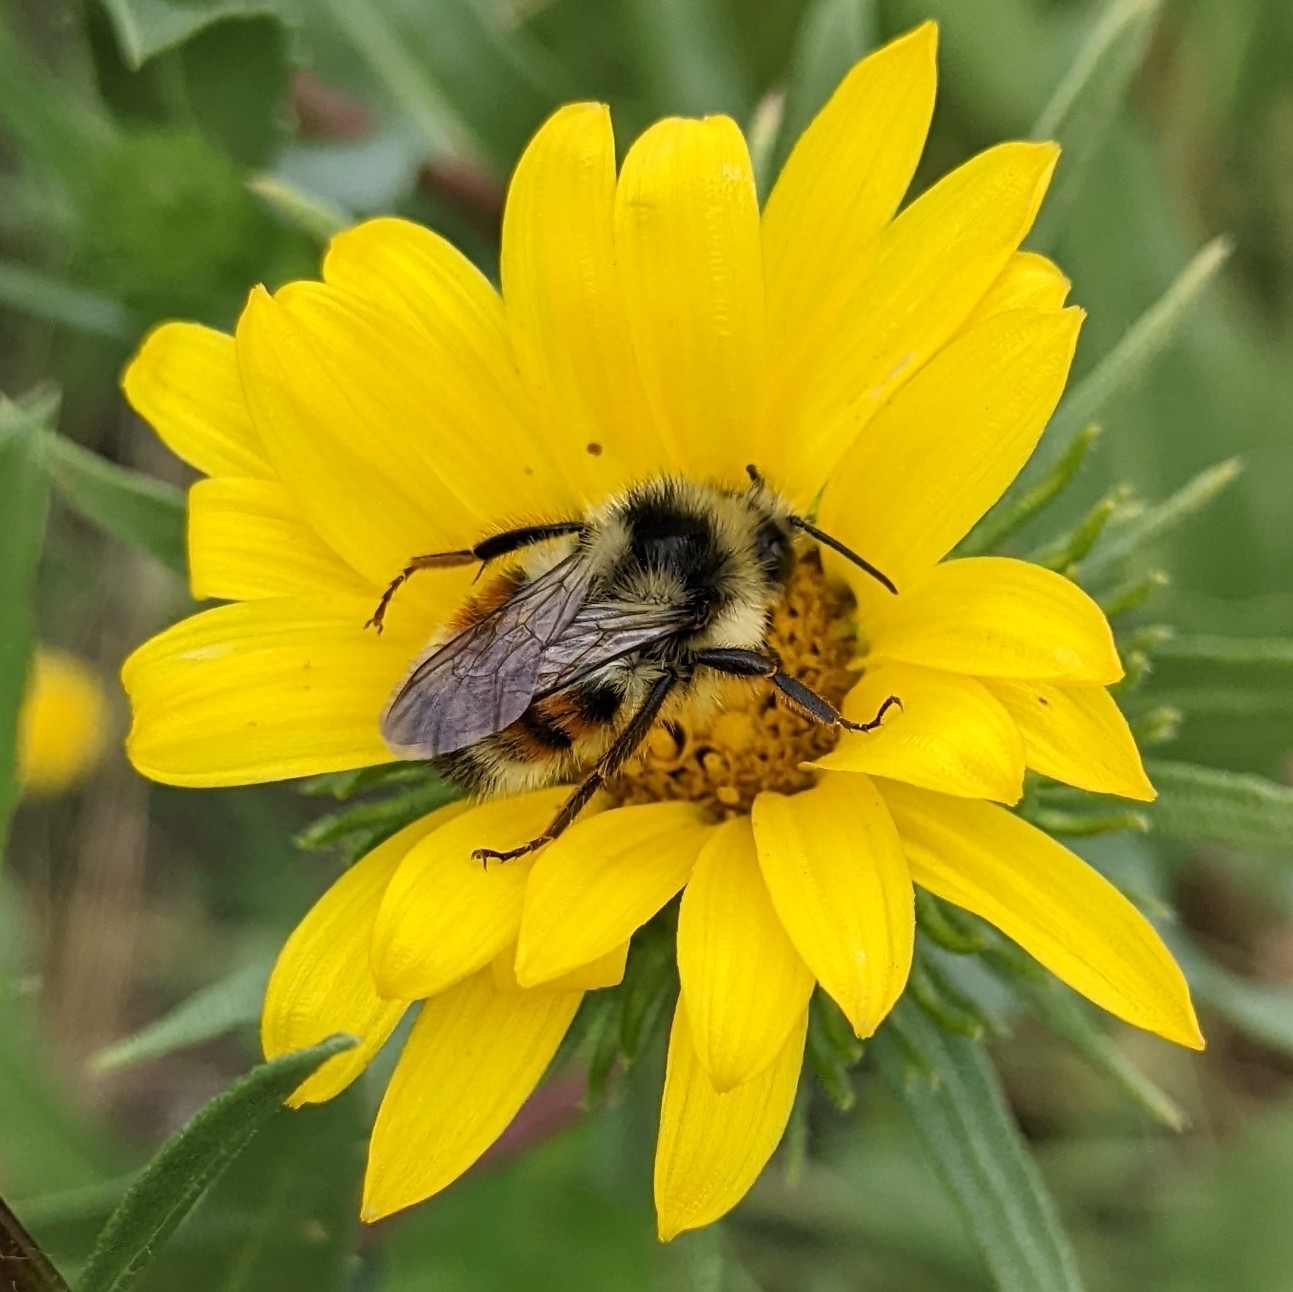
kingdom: Animalia
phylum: Arthropoda
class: Insecta
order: Hymenoptera
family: Apidae
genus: Bombus
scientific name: Bombus vancouverensis
